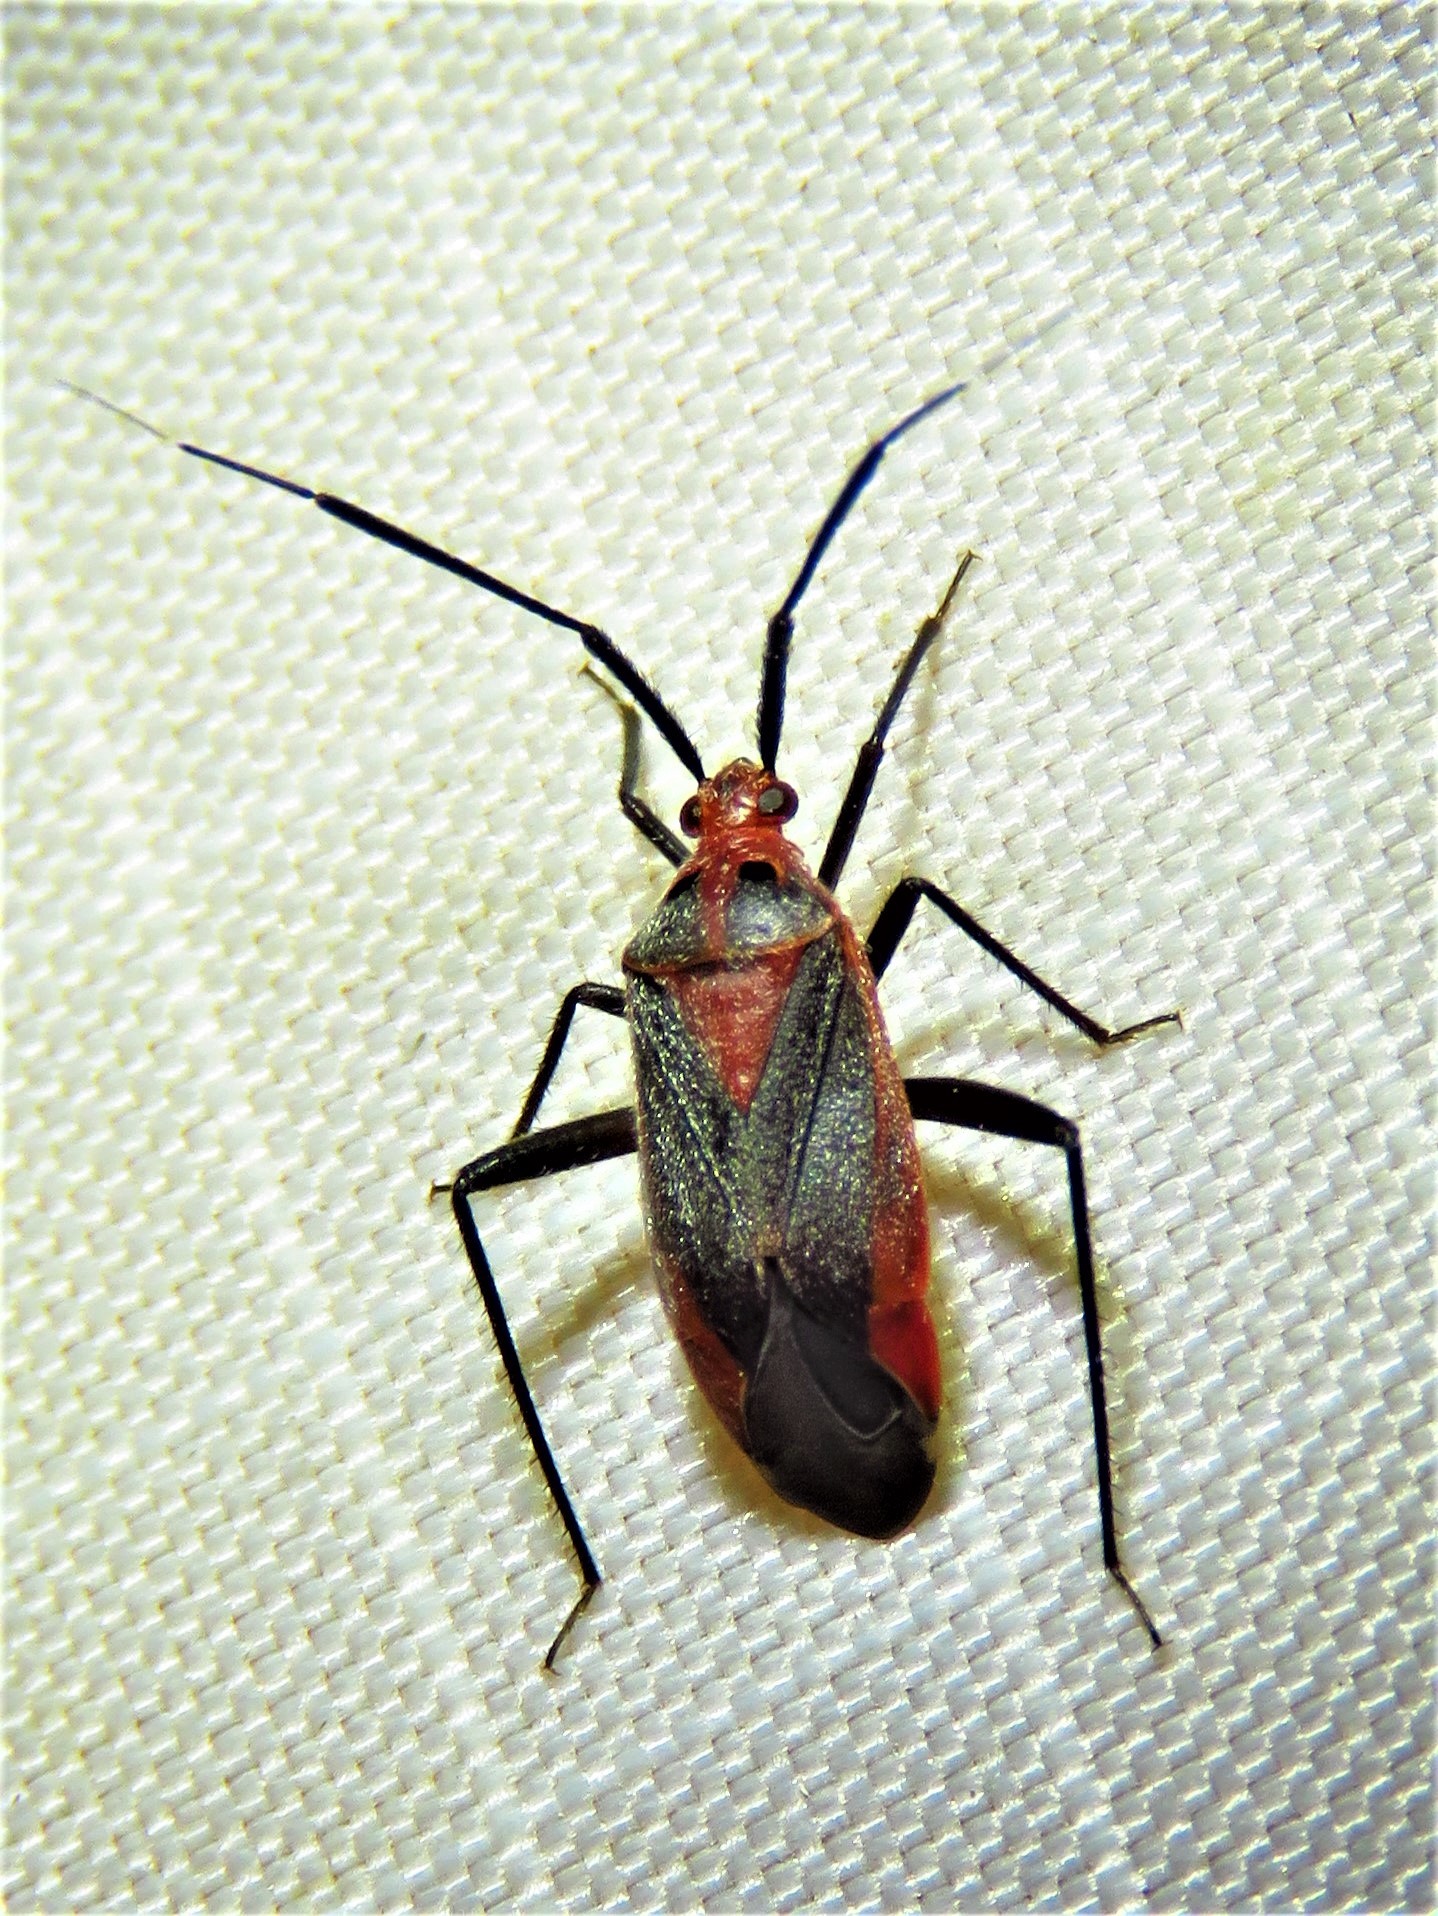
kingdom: Animalia
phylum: Arthropoda
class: Insecta
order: Hemiptera
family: Miridae
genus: Taedia
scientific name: Taedia johnstoni
